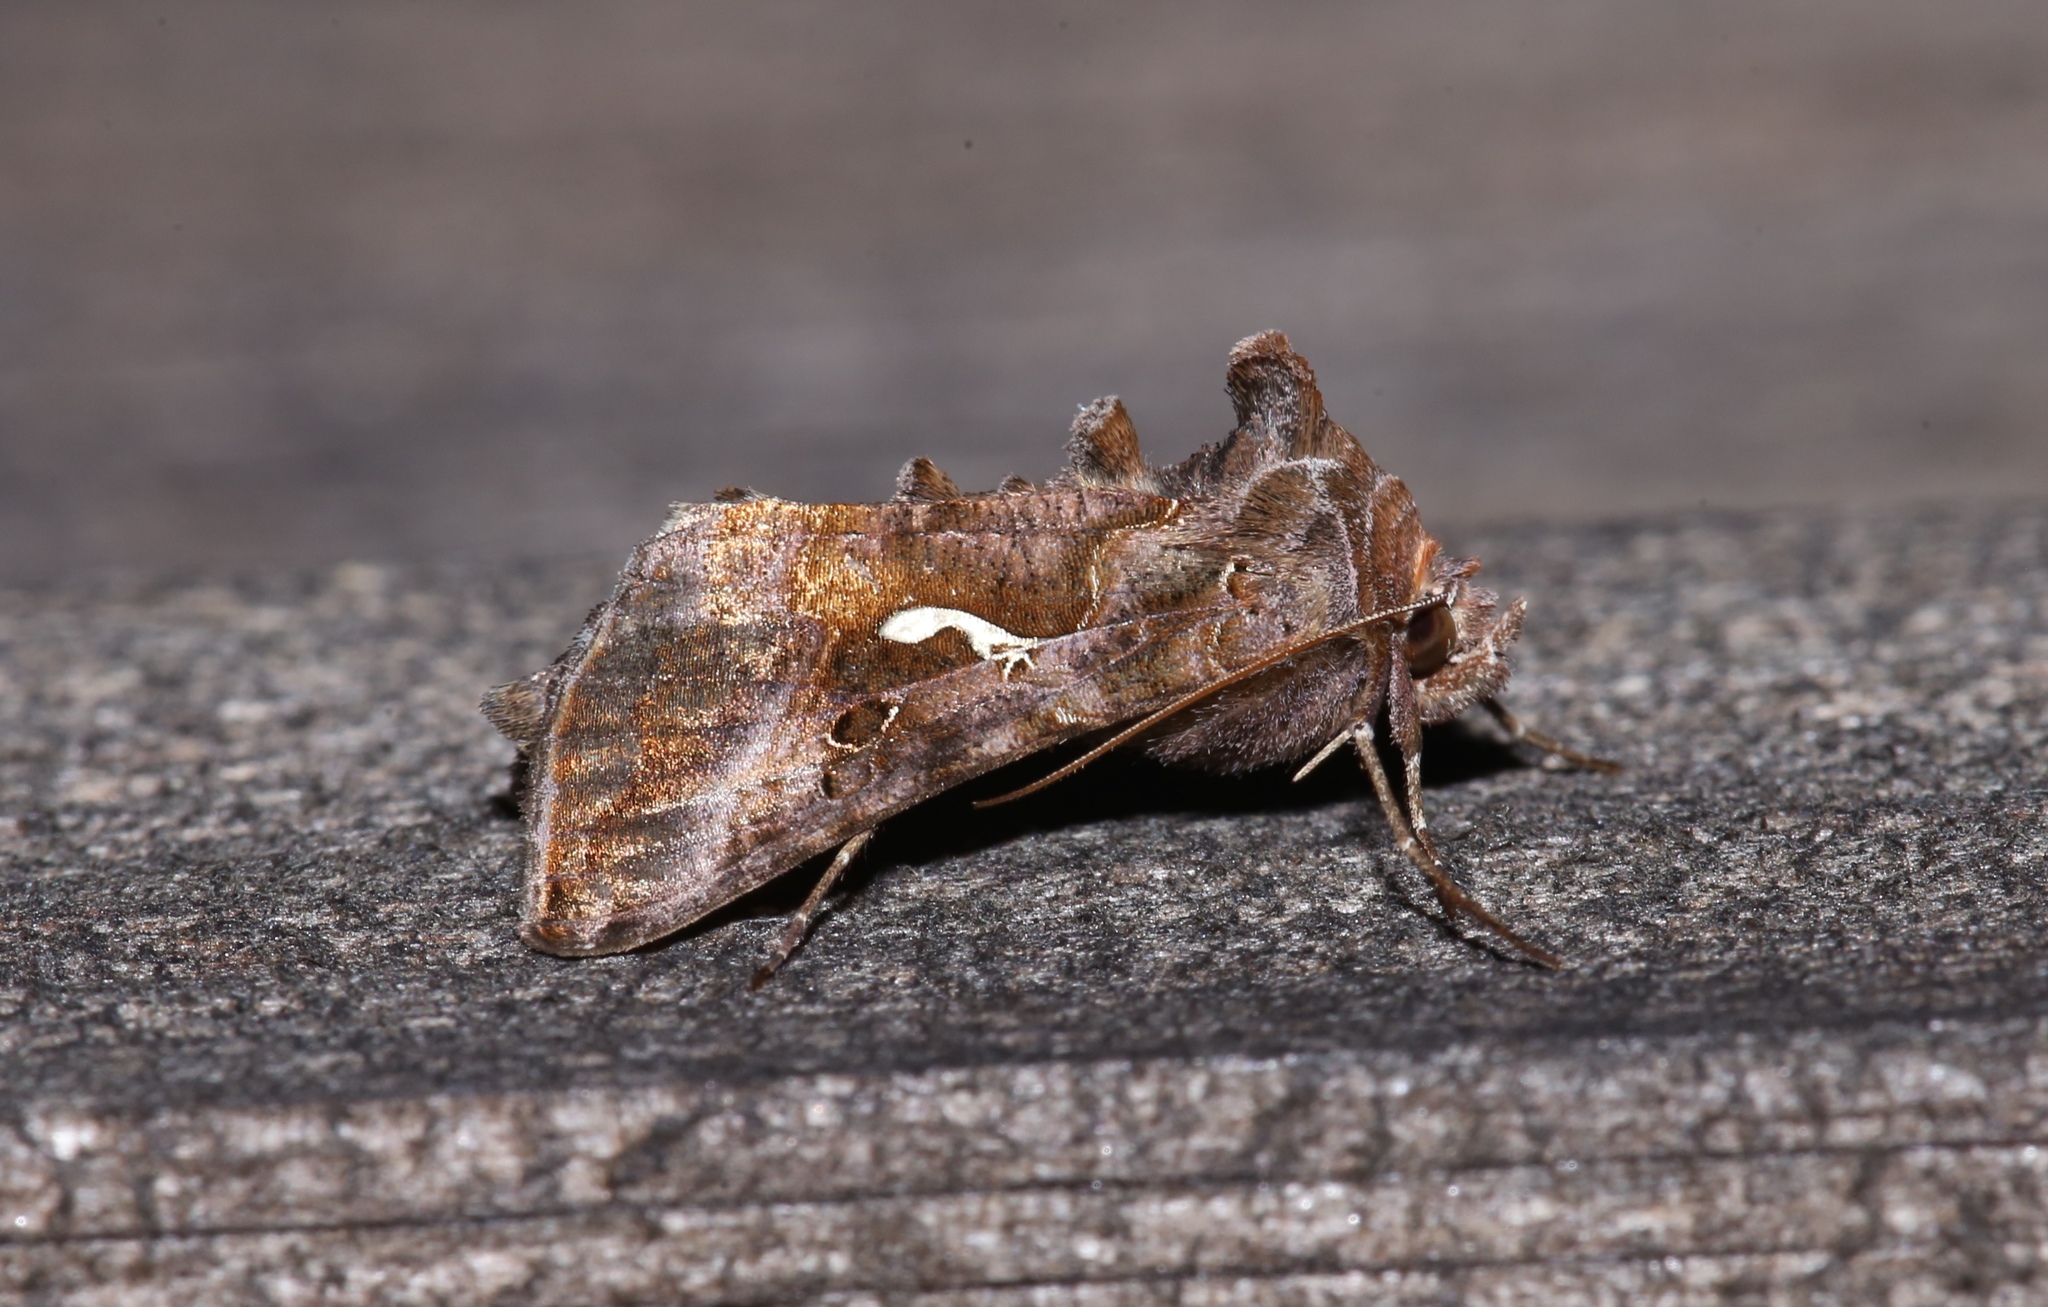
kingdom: Animalia
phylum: Arthropoda
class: Insecta
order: Lepidoptera
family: Noctuidae
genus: Autographa
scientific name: Autographa precationis
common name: Common looper moth
